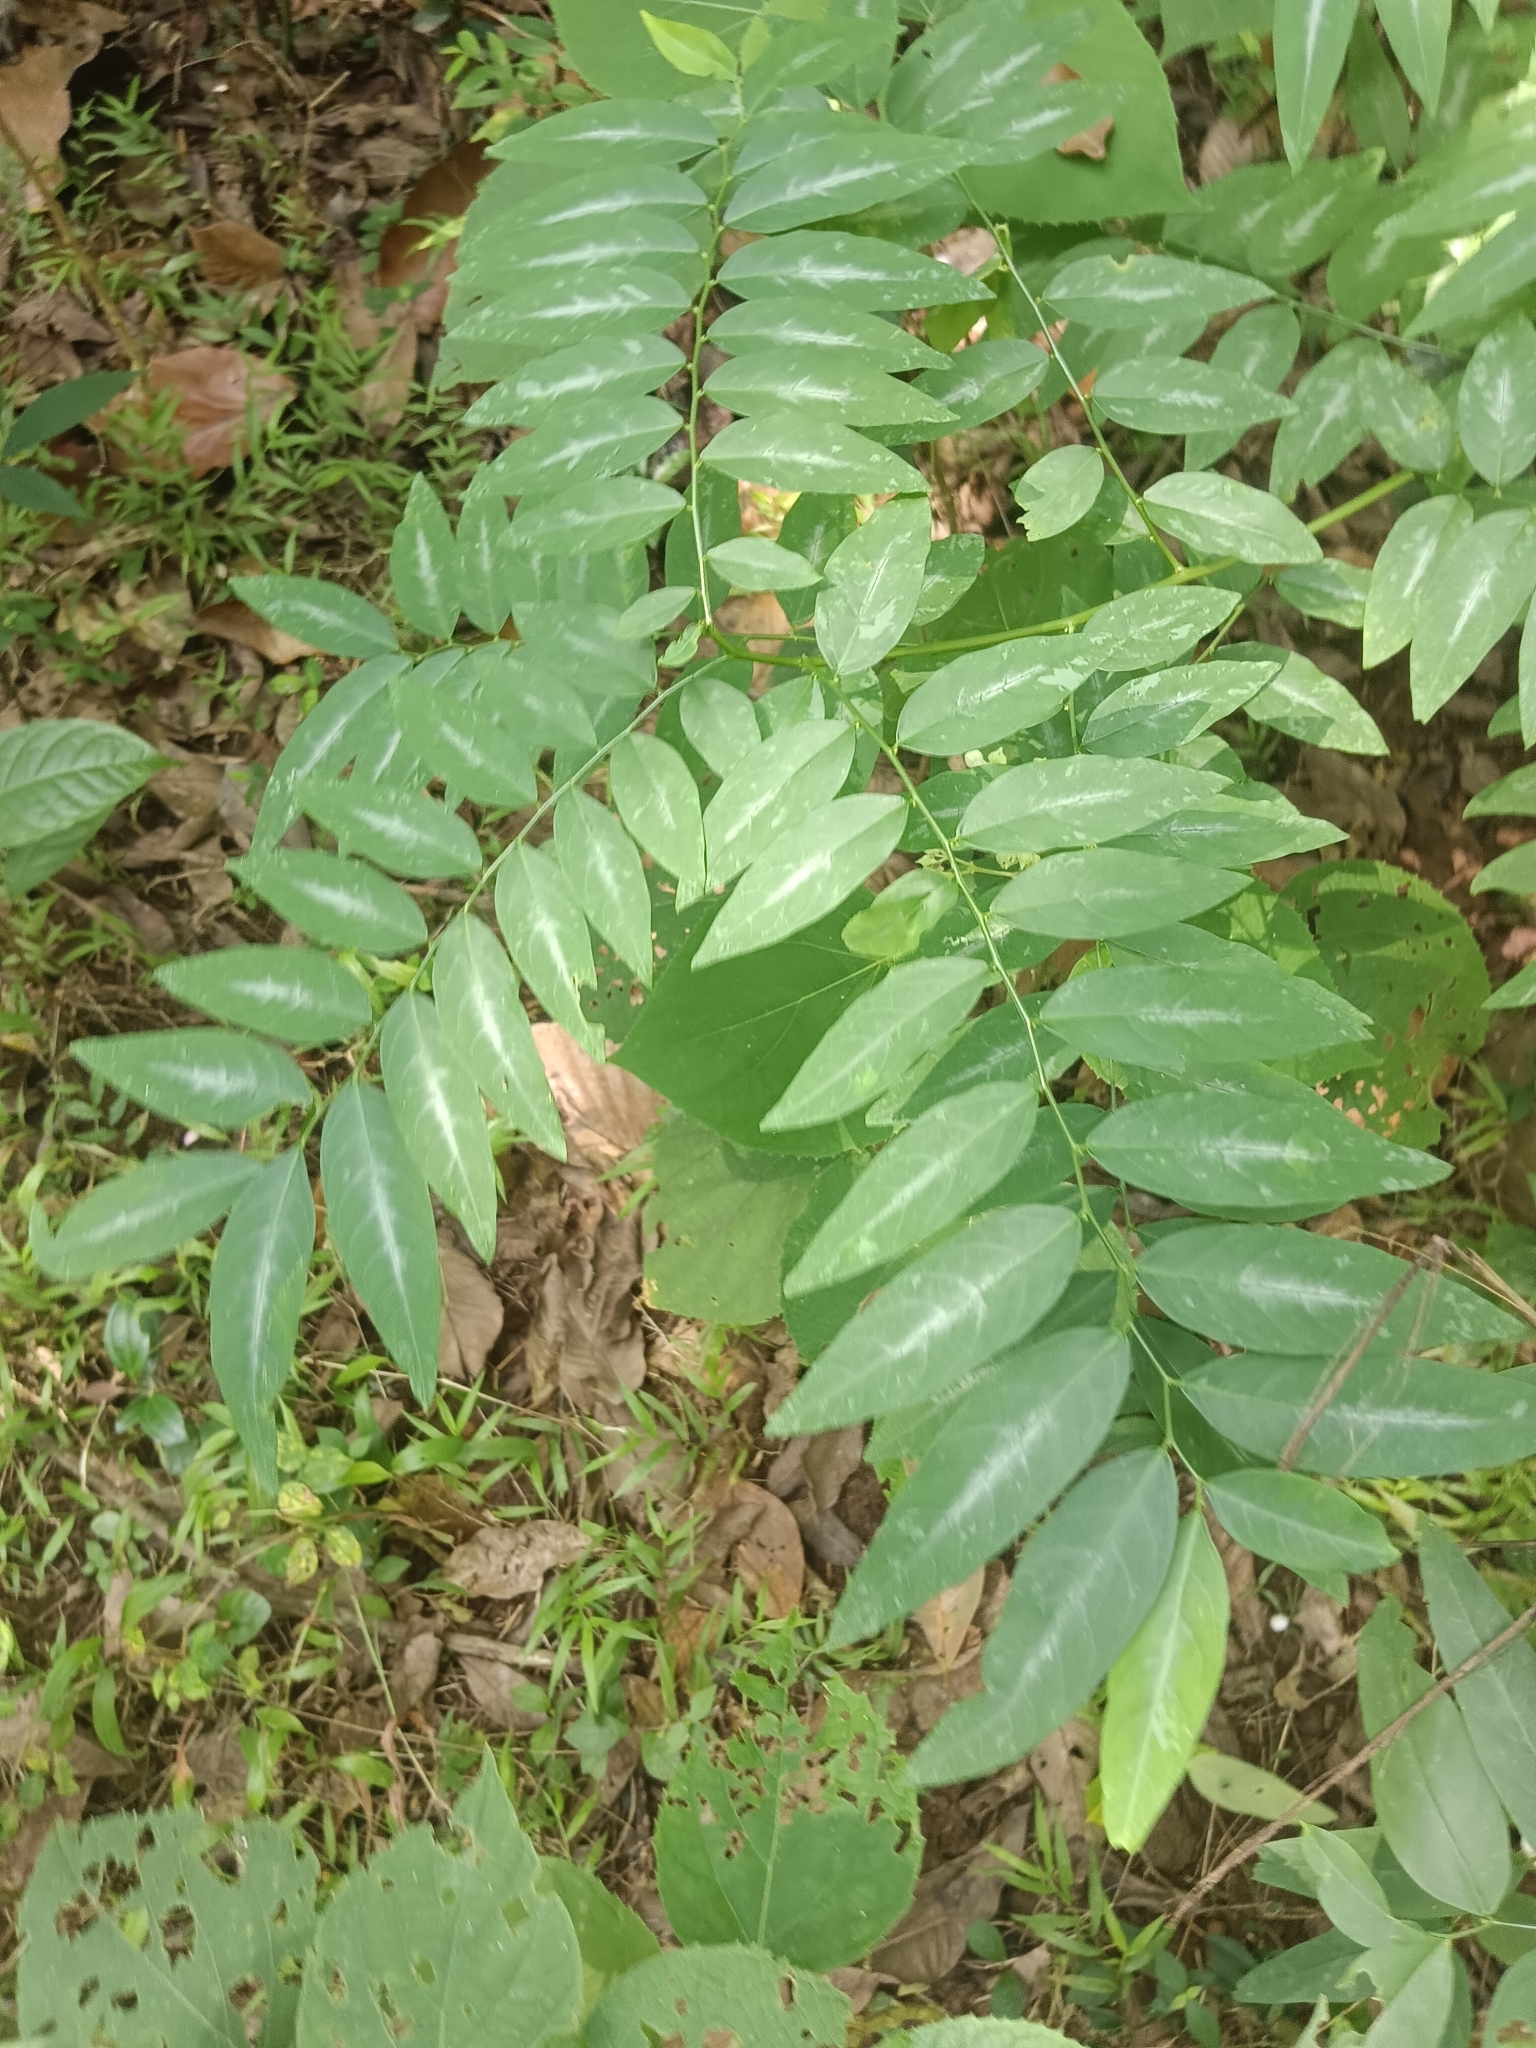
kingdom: Plantae
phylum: Tracheophyta
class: Magnoliopsida
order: Malpighiales
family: Phyllanthaceae
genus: Breynia
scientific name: Breynia androgyna
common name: Star gooseberry
